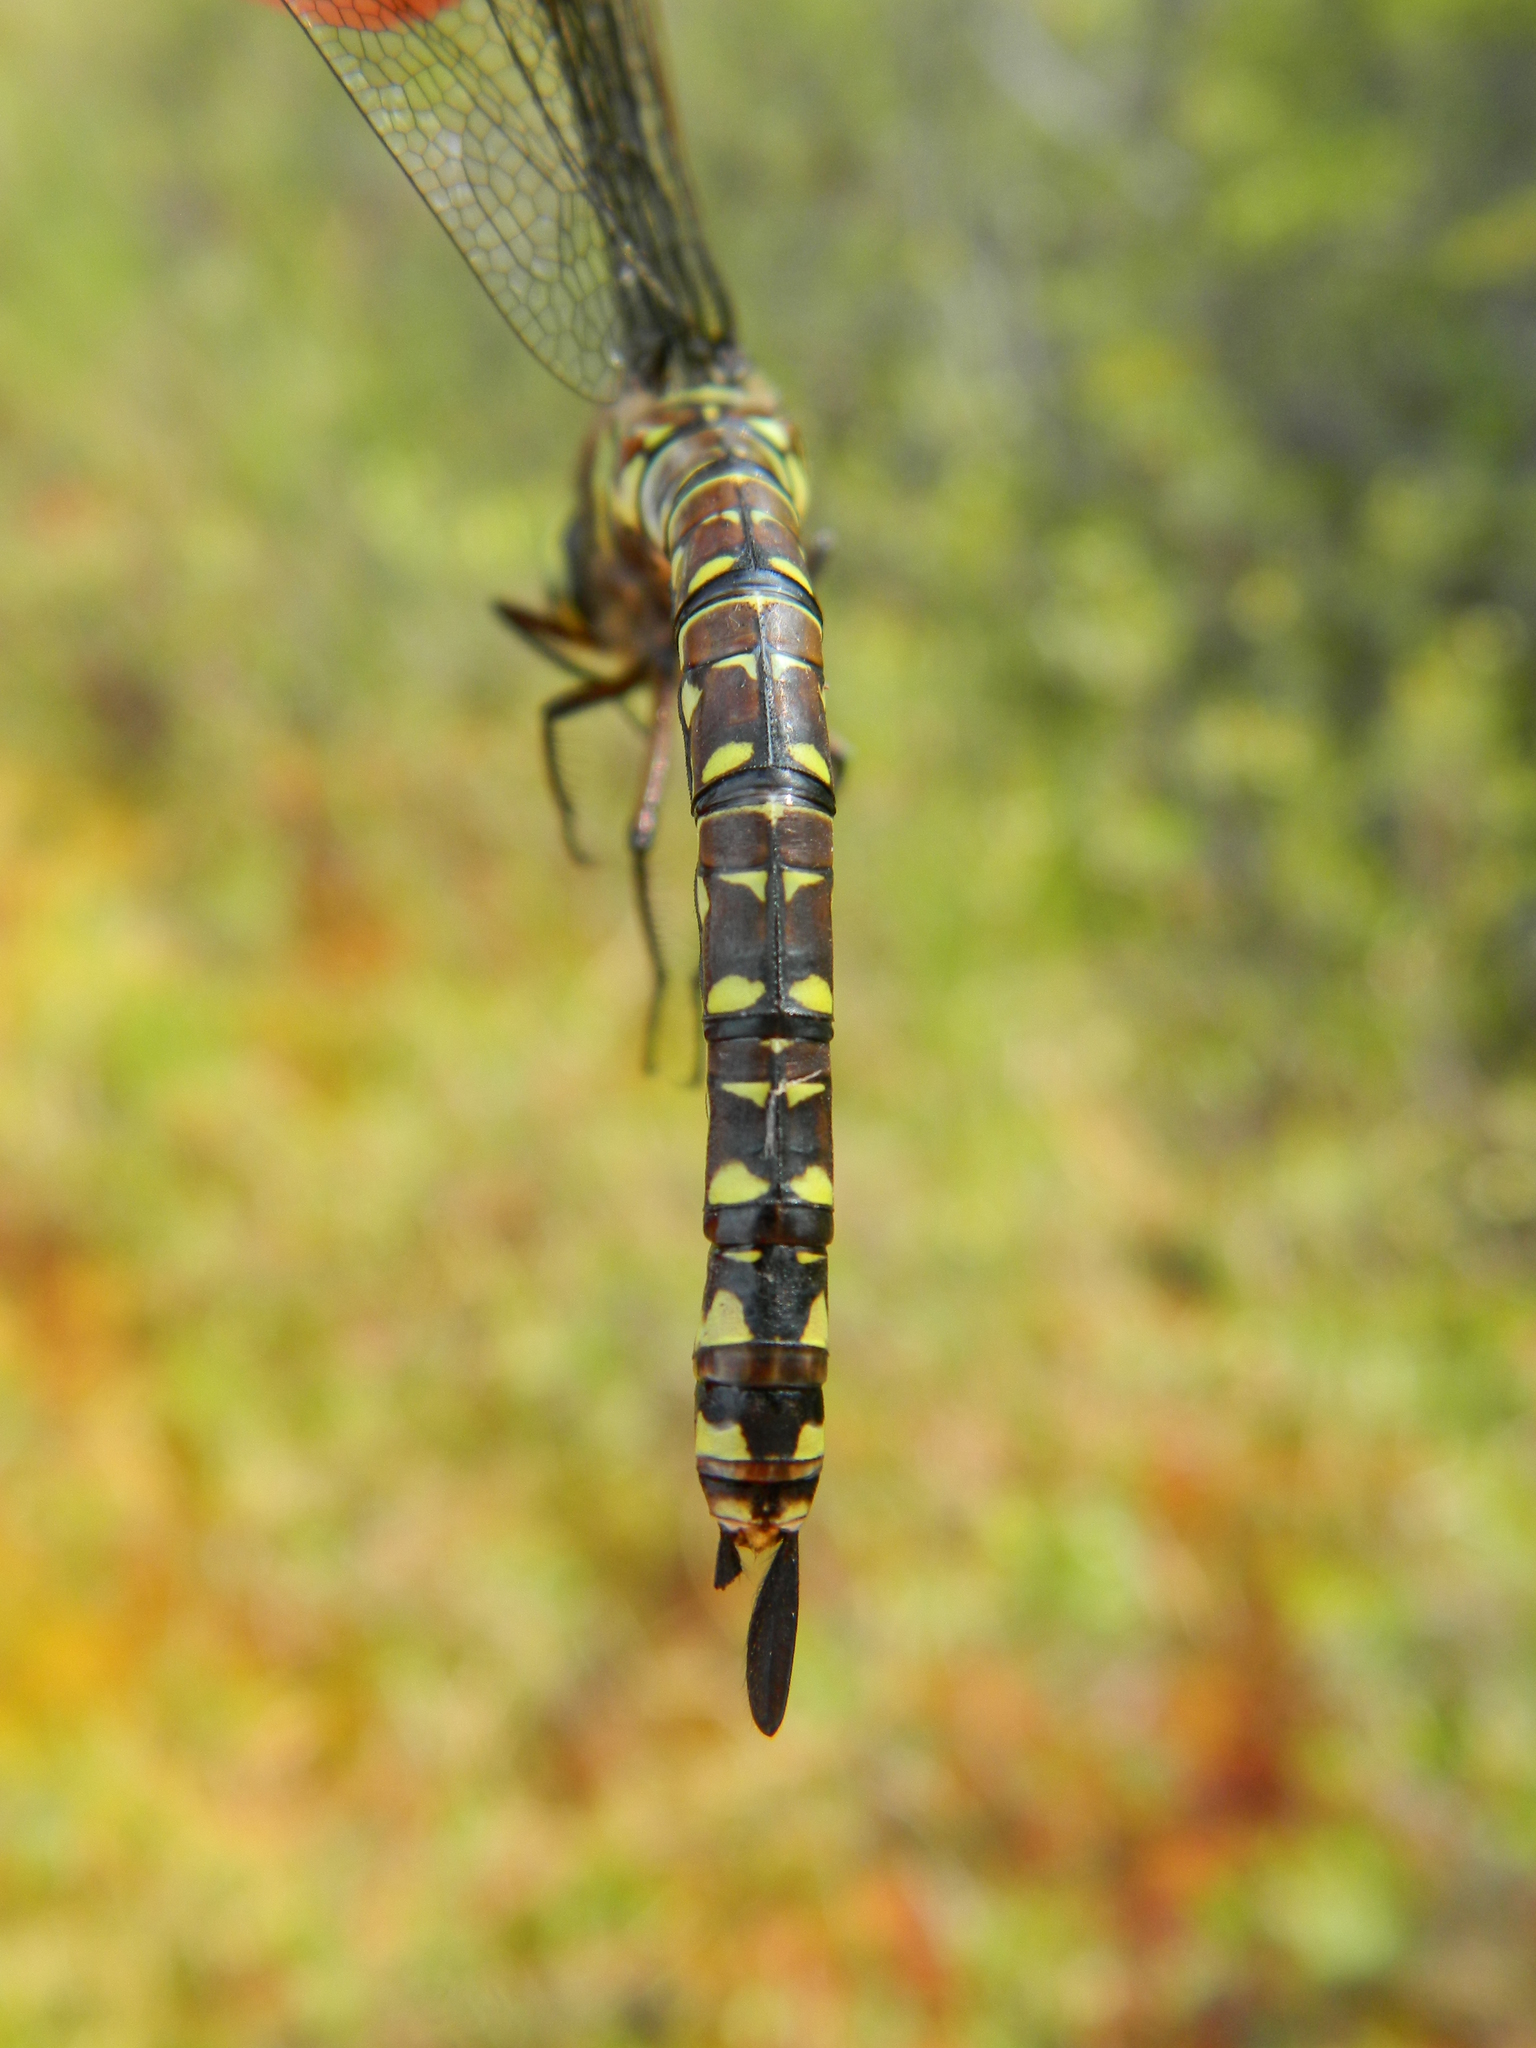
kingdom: Animalia
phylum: Arthropoda
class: Insecta
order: Odonata
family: Aeshnidae
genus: Aeshna
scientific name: Aeshna subarctica
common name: Subarctic darner
